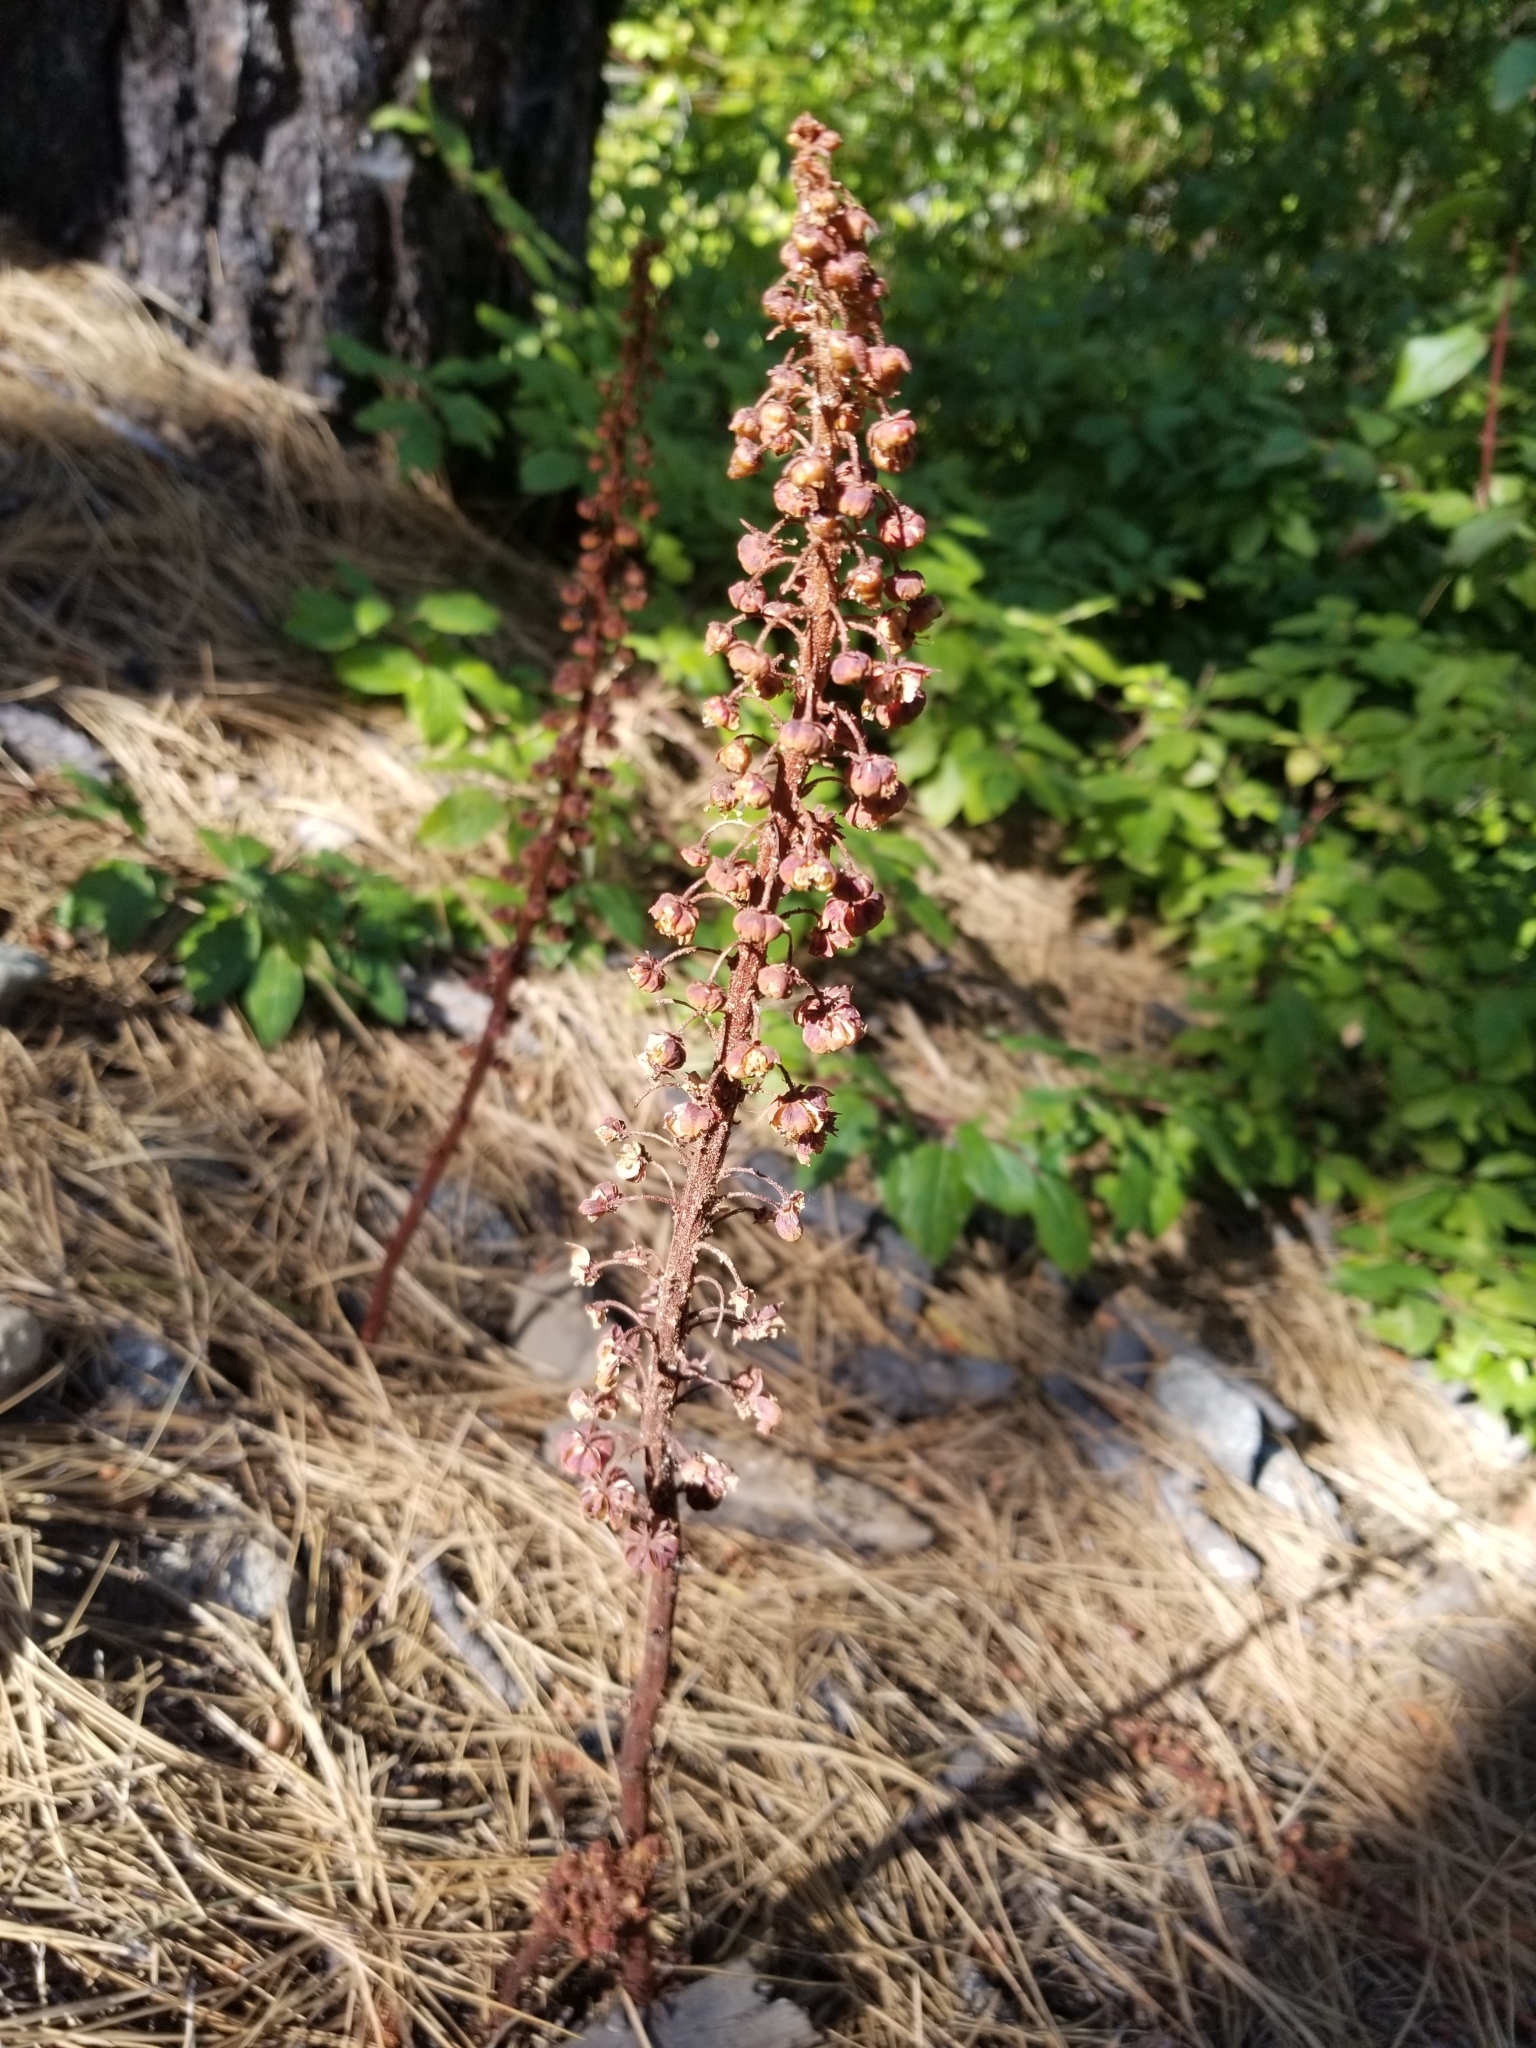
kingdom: Plantae
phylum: Tracheophyta
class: Magnoliopsida
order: Ericales
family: Ericaceae
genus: Pterospora
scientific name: Pterospora andromedea
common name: Giant bird's-nest
